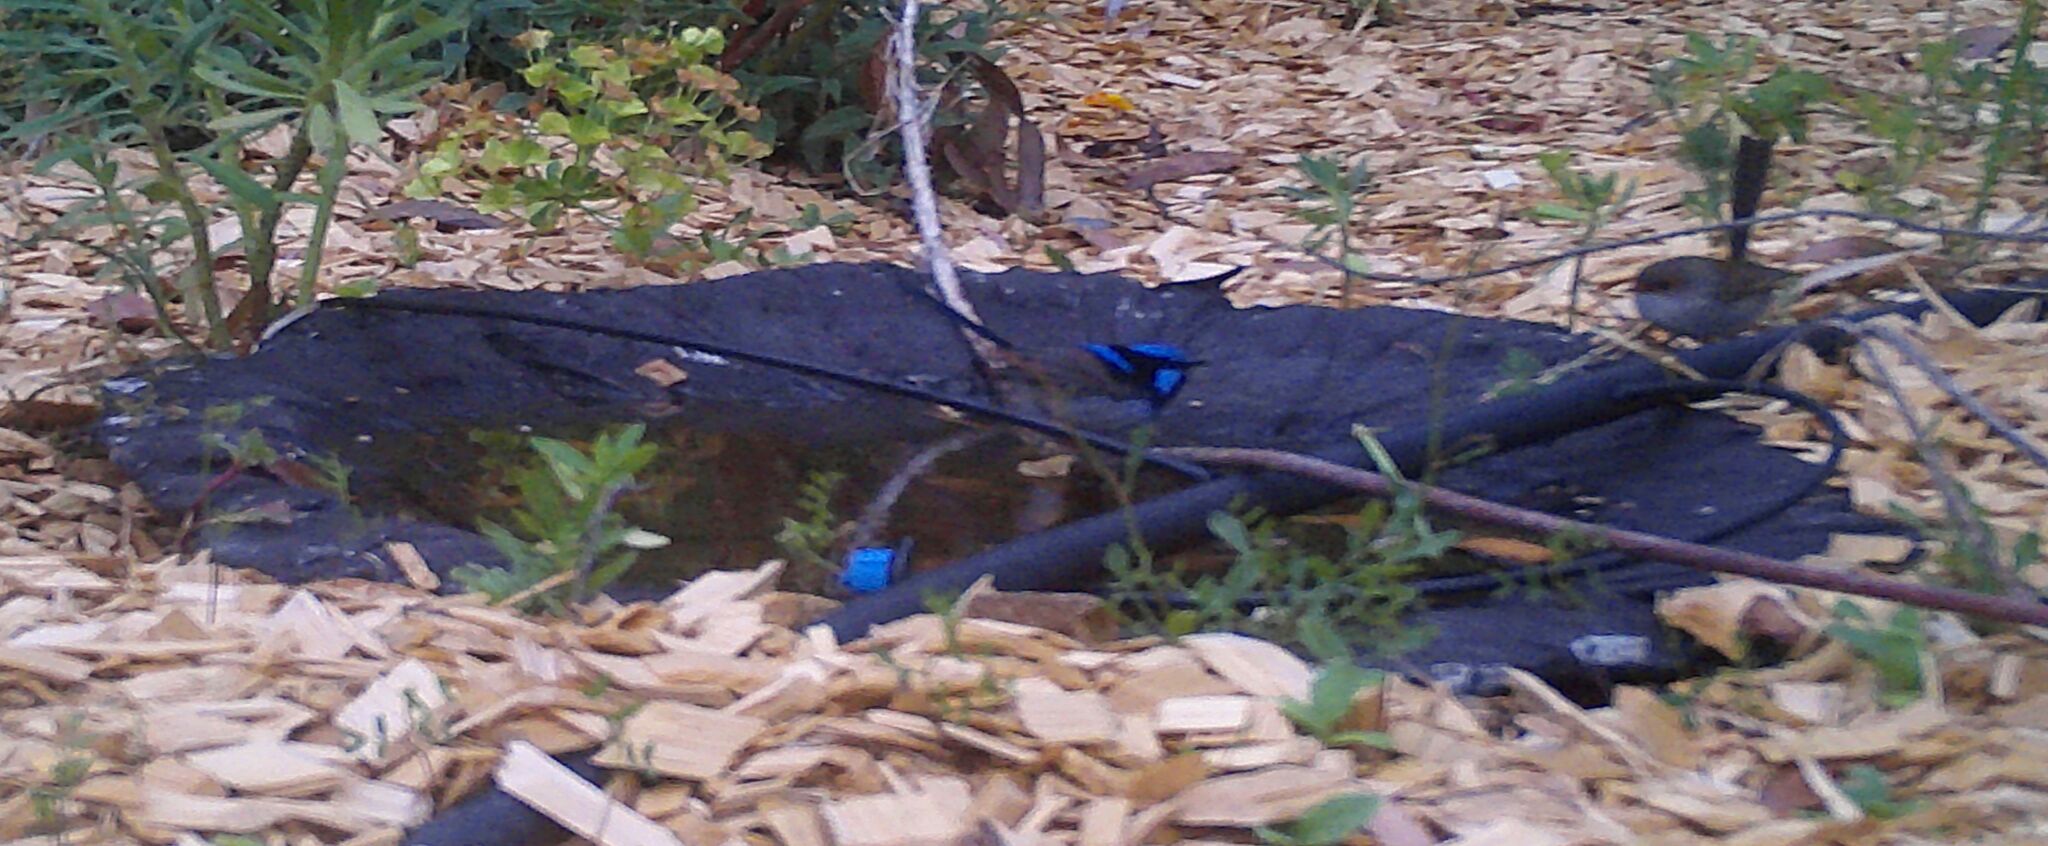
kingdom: Animalia
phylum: Chordata
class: Aves
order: Passeriformes
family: Maluridae
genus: Malurus
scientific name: Malurus cyaneus
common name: Superb fairywren
